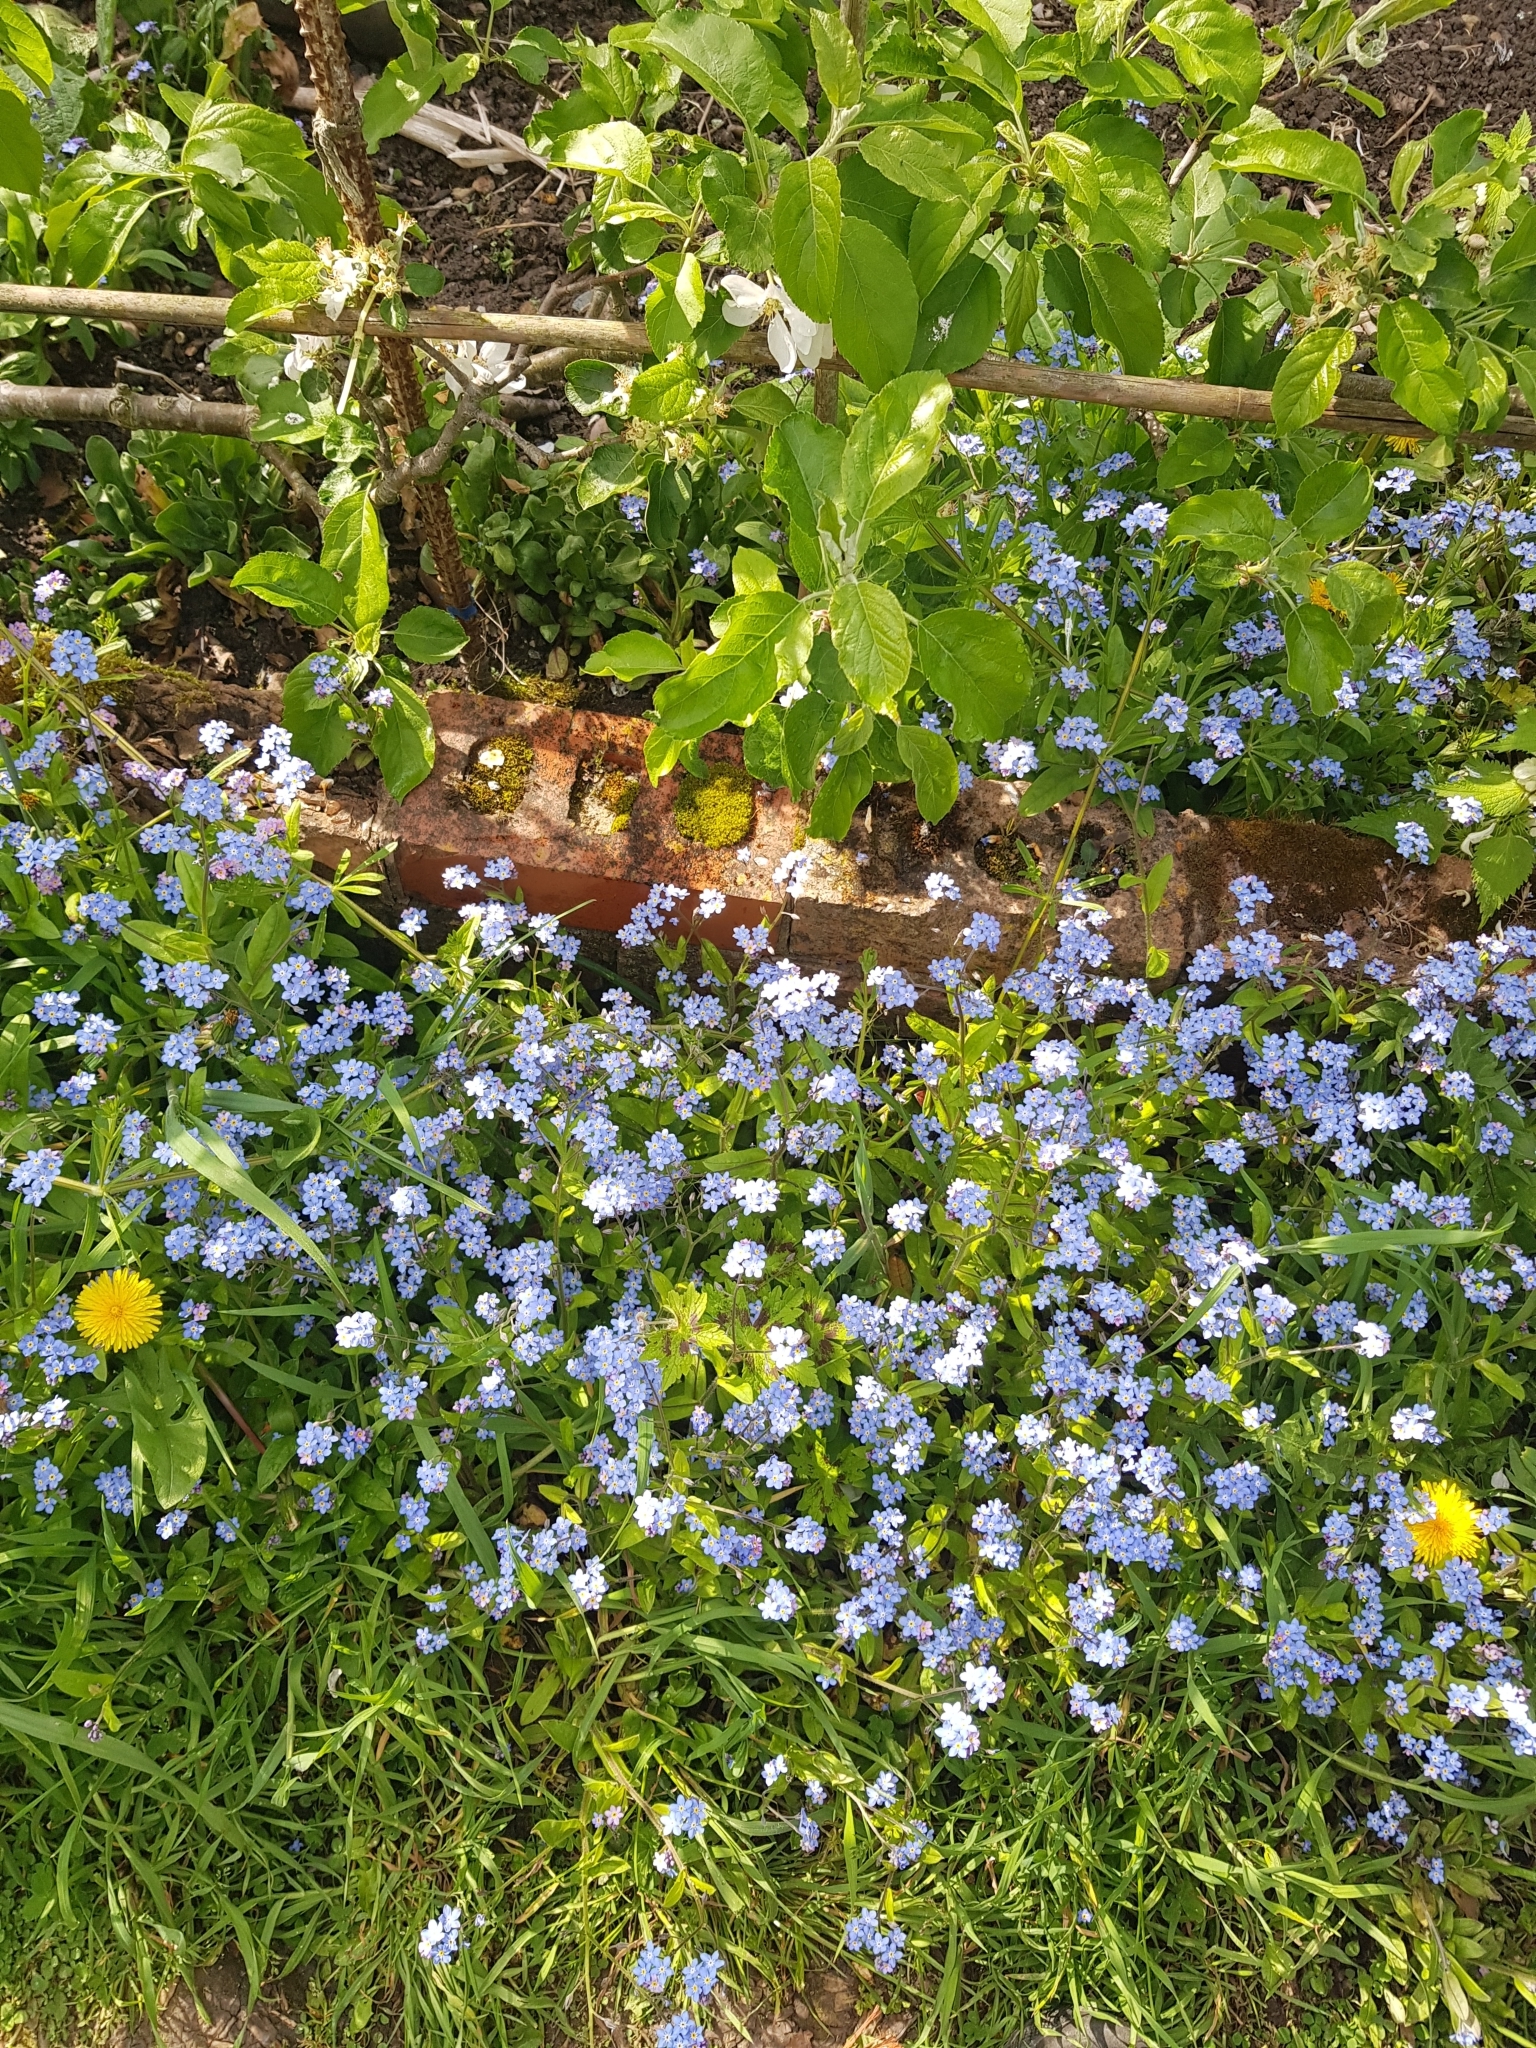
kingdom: Plantae
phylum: Tracheophyta
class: Magnoliopsida
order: Boraginales
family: Boraginaceae
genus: Myosotis
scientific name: Myosotis sylvatica
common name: Wood forget-me-not
